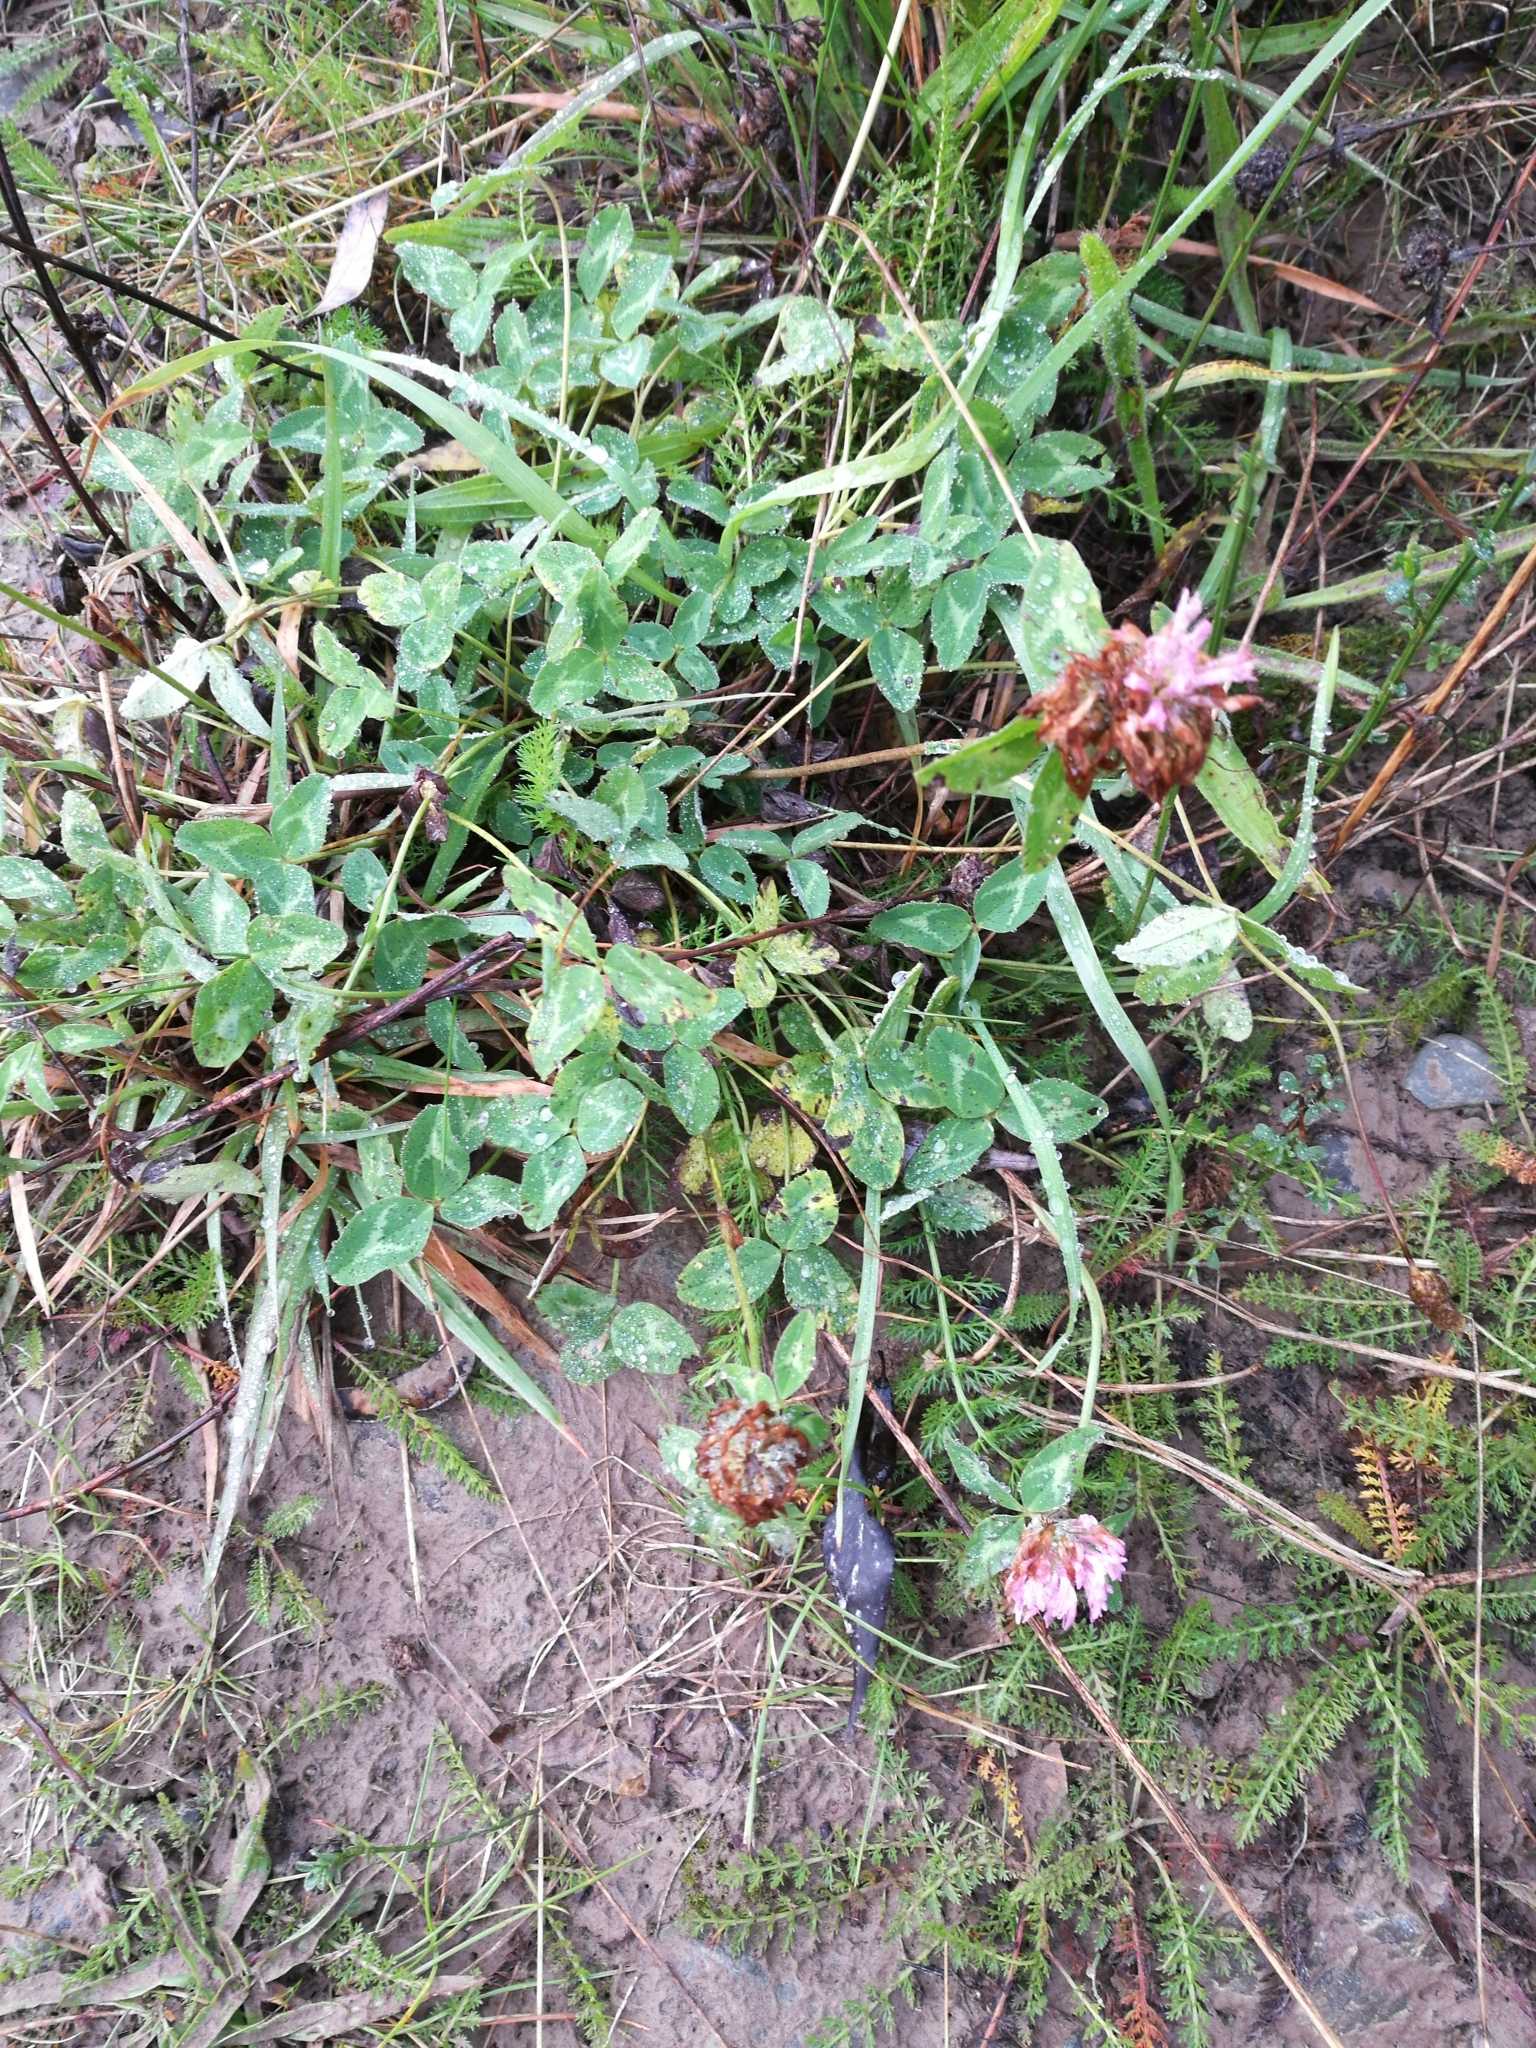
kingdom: Plantae
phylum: Tracheophyta
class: Magnoliopsida
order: Fabales
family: Fabaceae
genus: Trifolium
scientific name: Trifolium pratense
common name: Red clover
